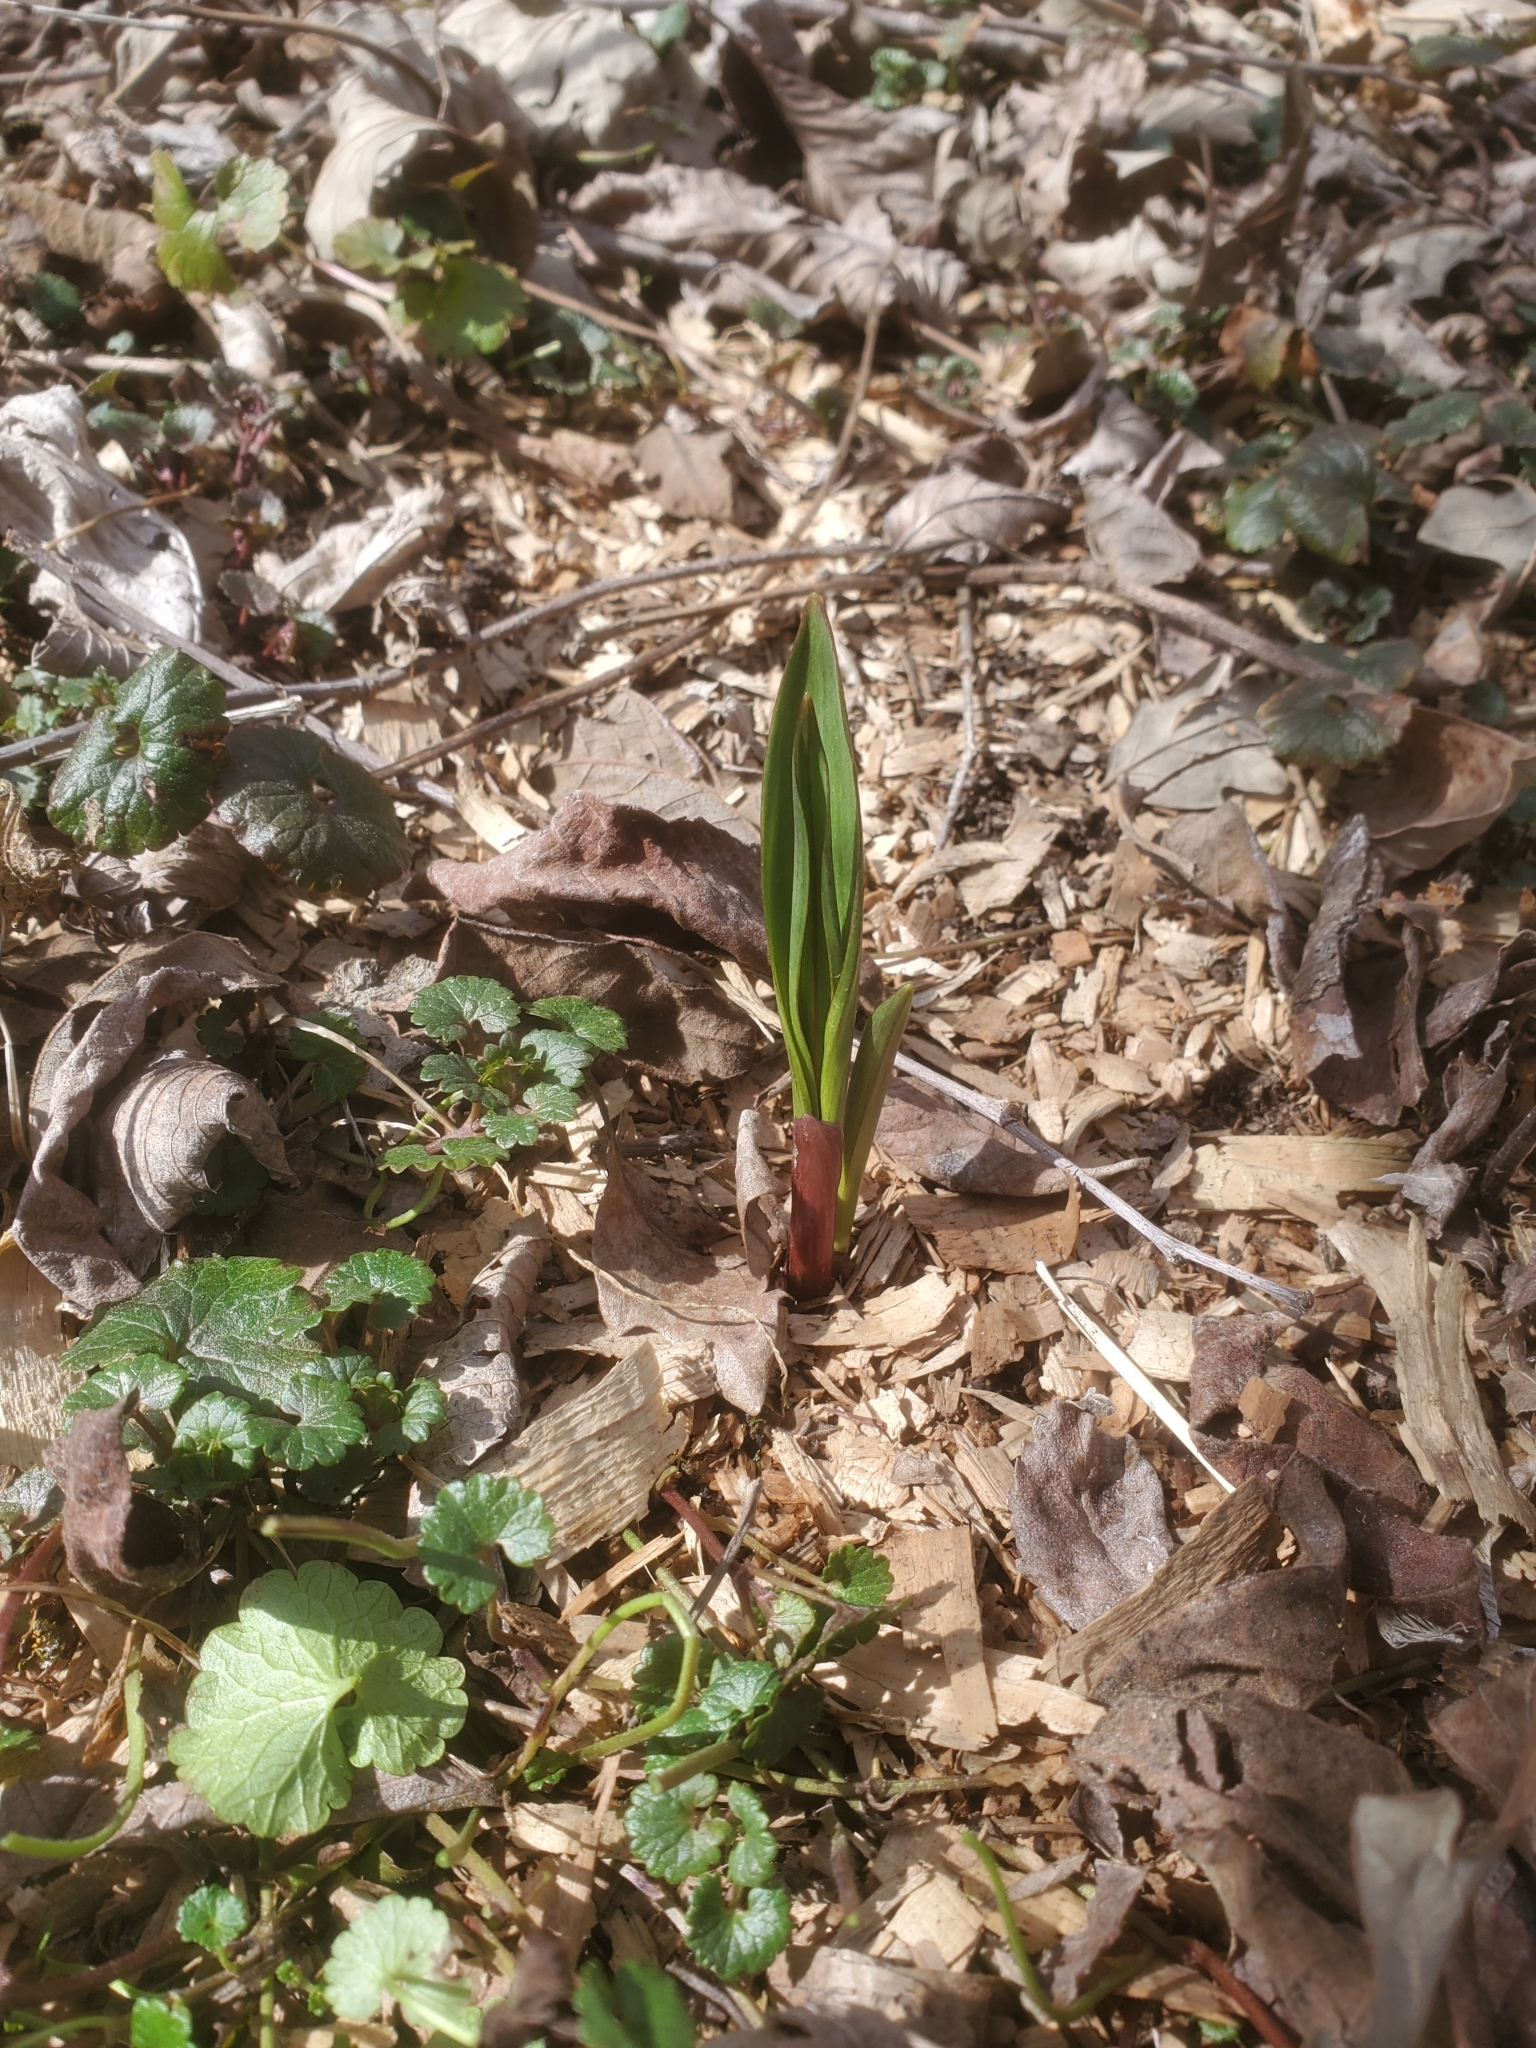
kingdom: Plantae
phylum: Tracheophyta
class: Liliopsida
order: Asparagales
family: Amaryllidaceae
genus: Allium
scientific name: Allium tricoccum
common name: Ramp
